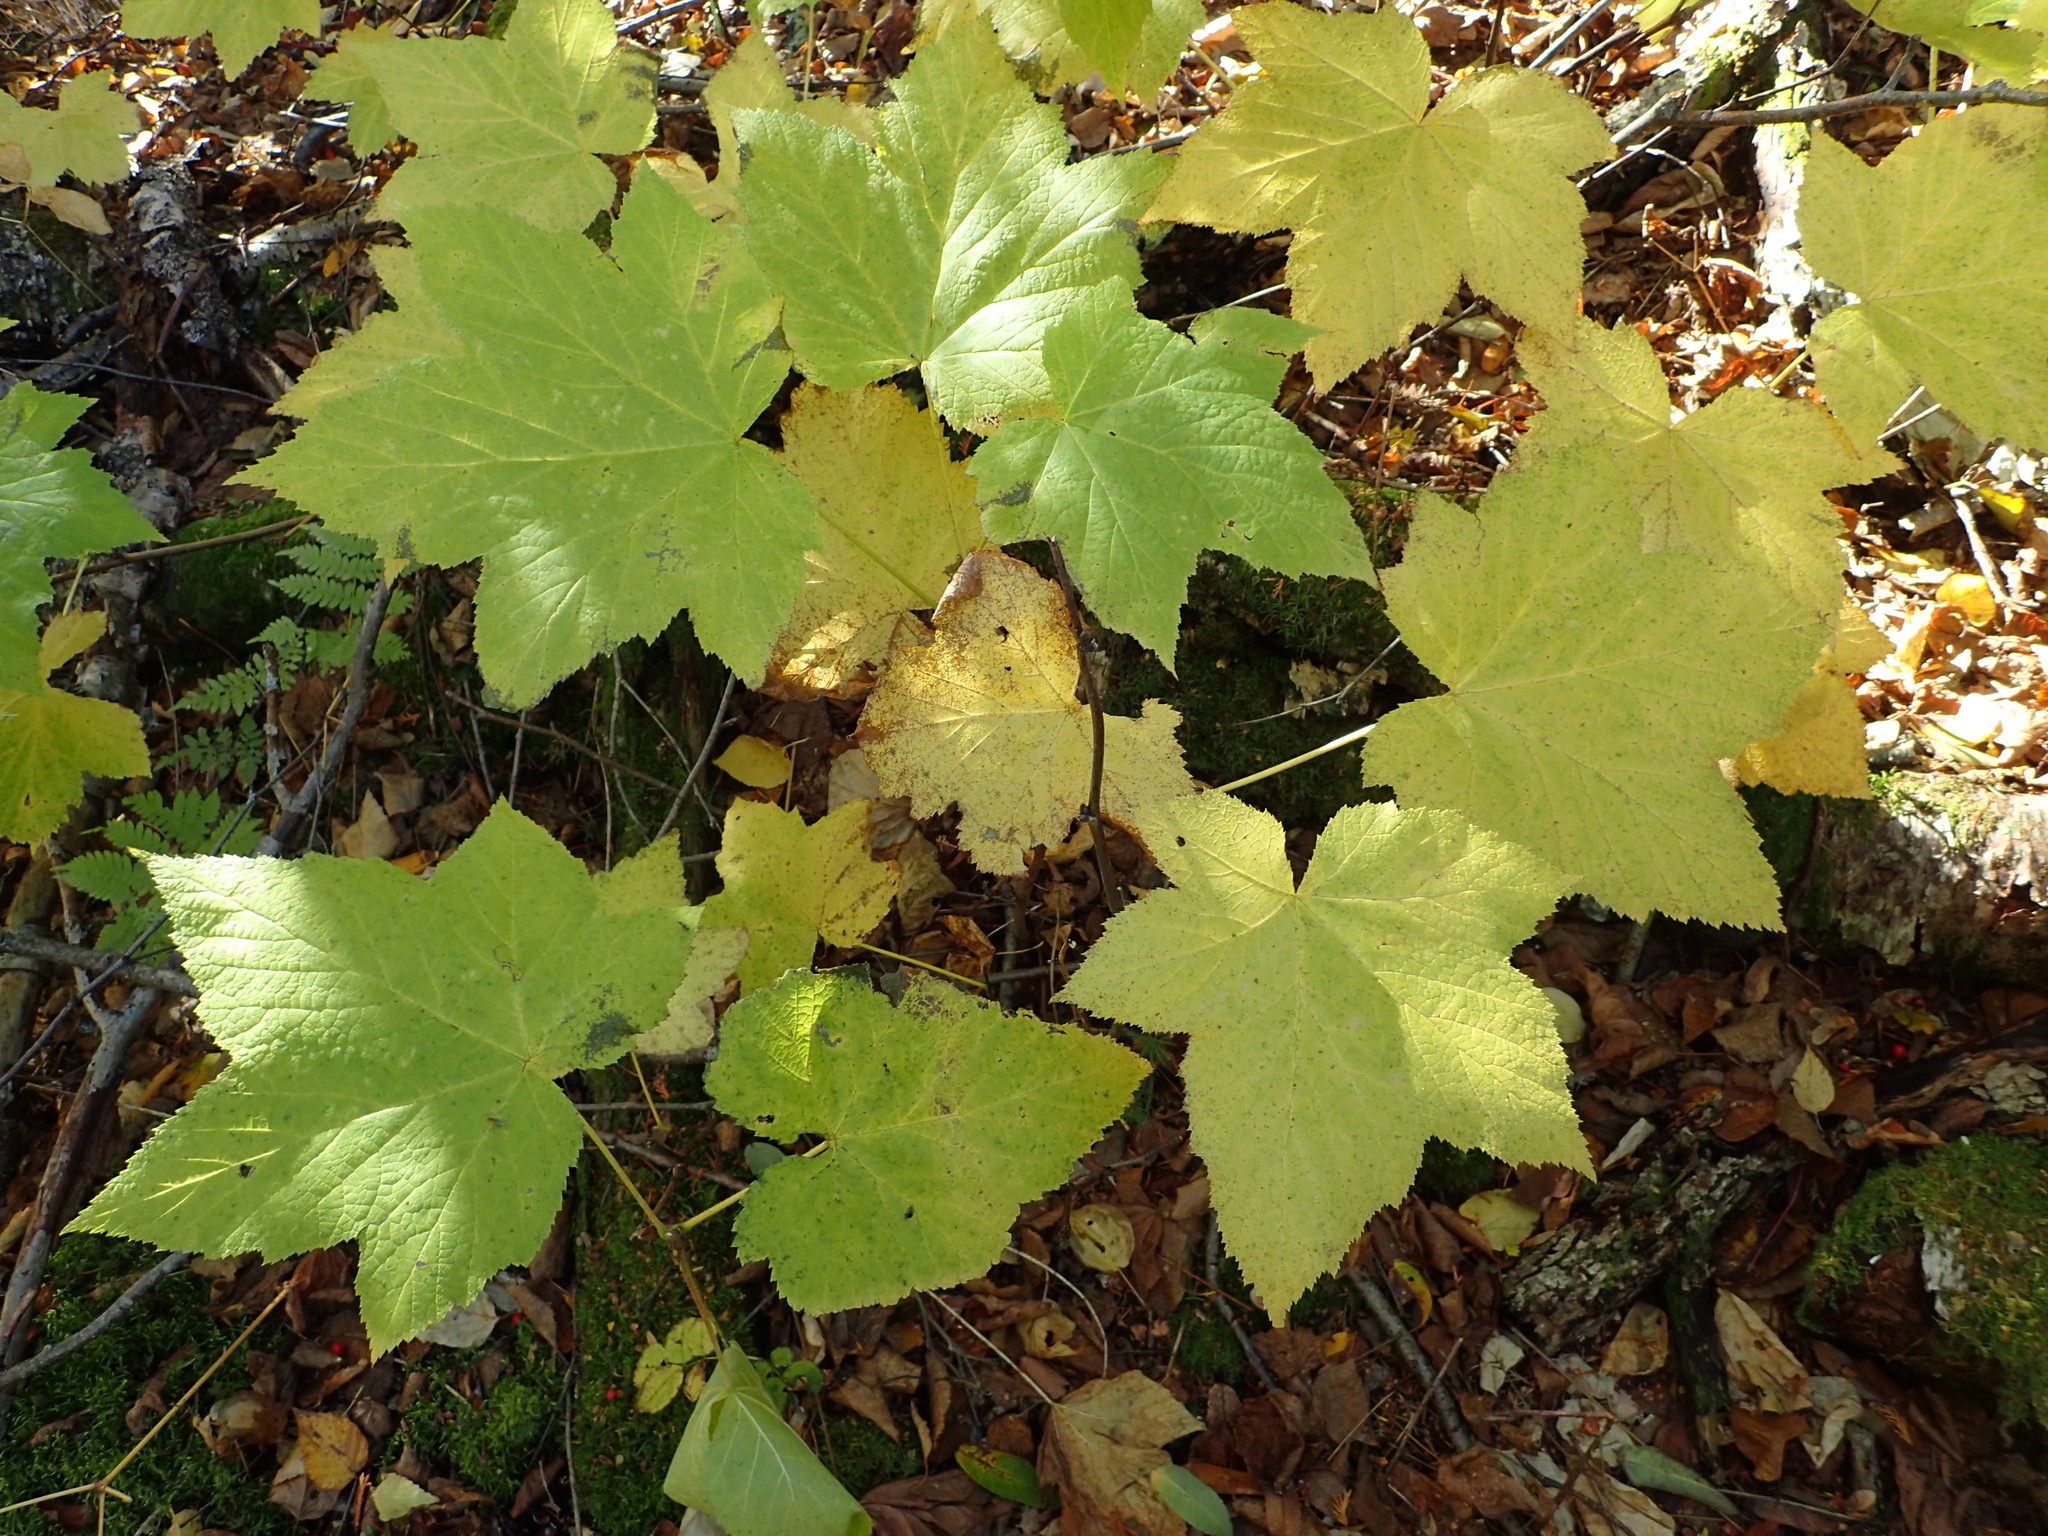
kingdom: Plantae
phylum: Tracheophyta
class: Magnoliopsida
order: Rosales
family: Rosaceae
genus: Rubus
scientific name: Rubus parviflorus
